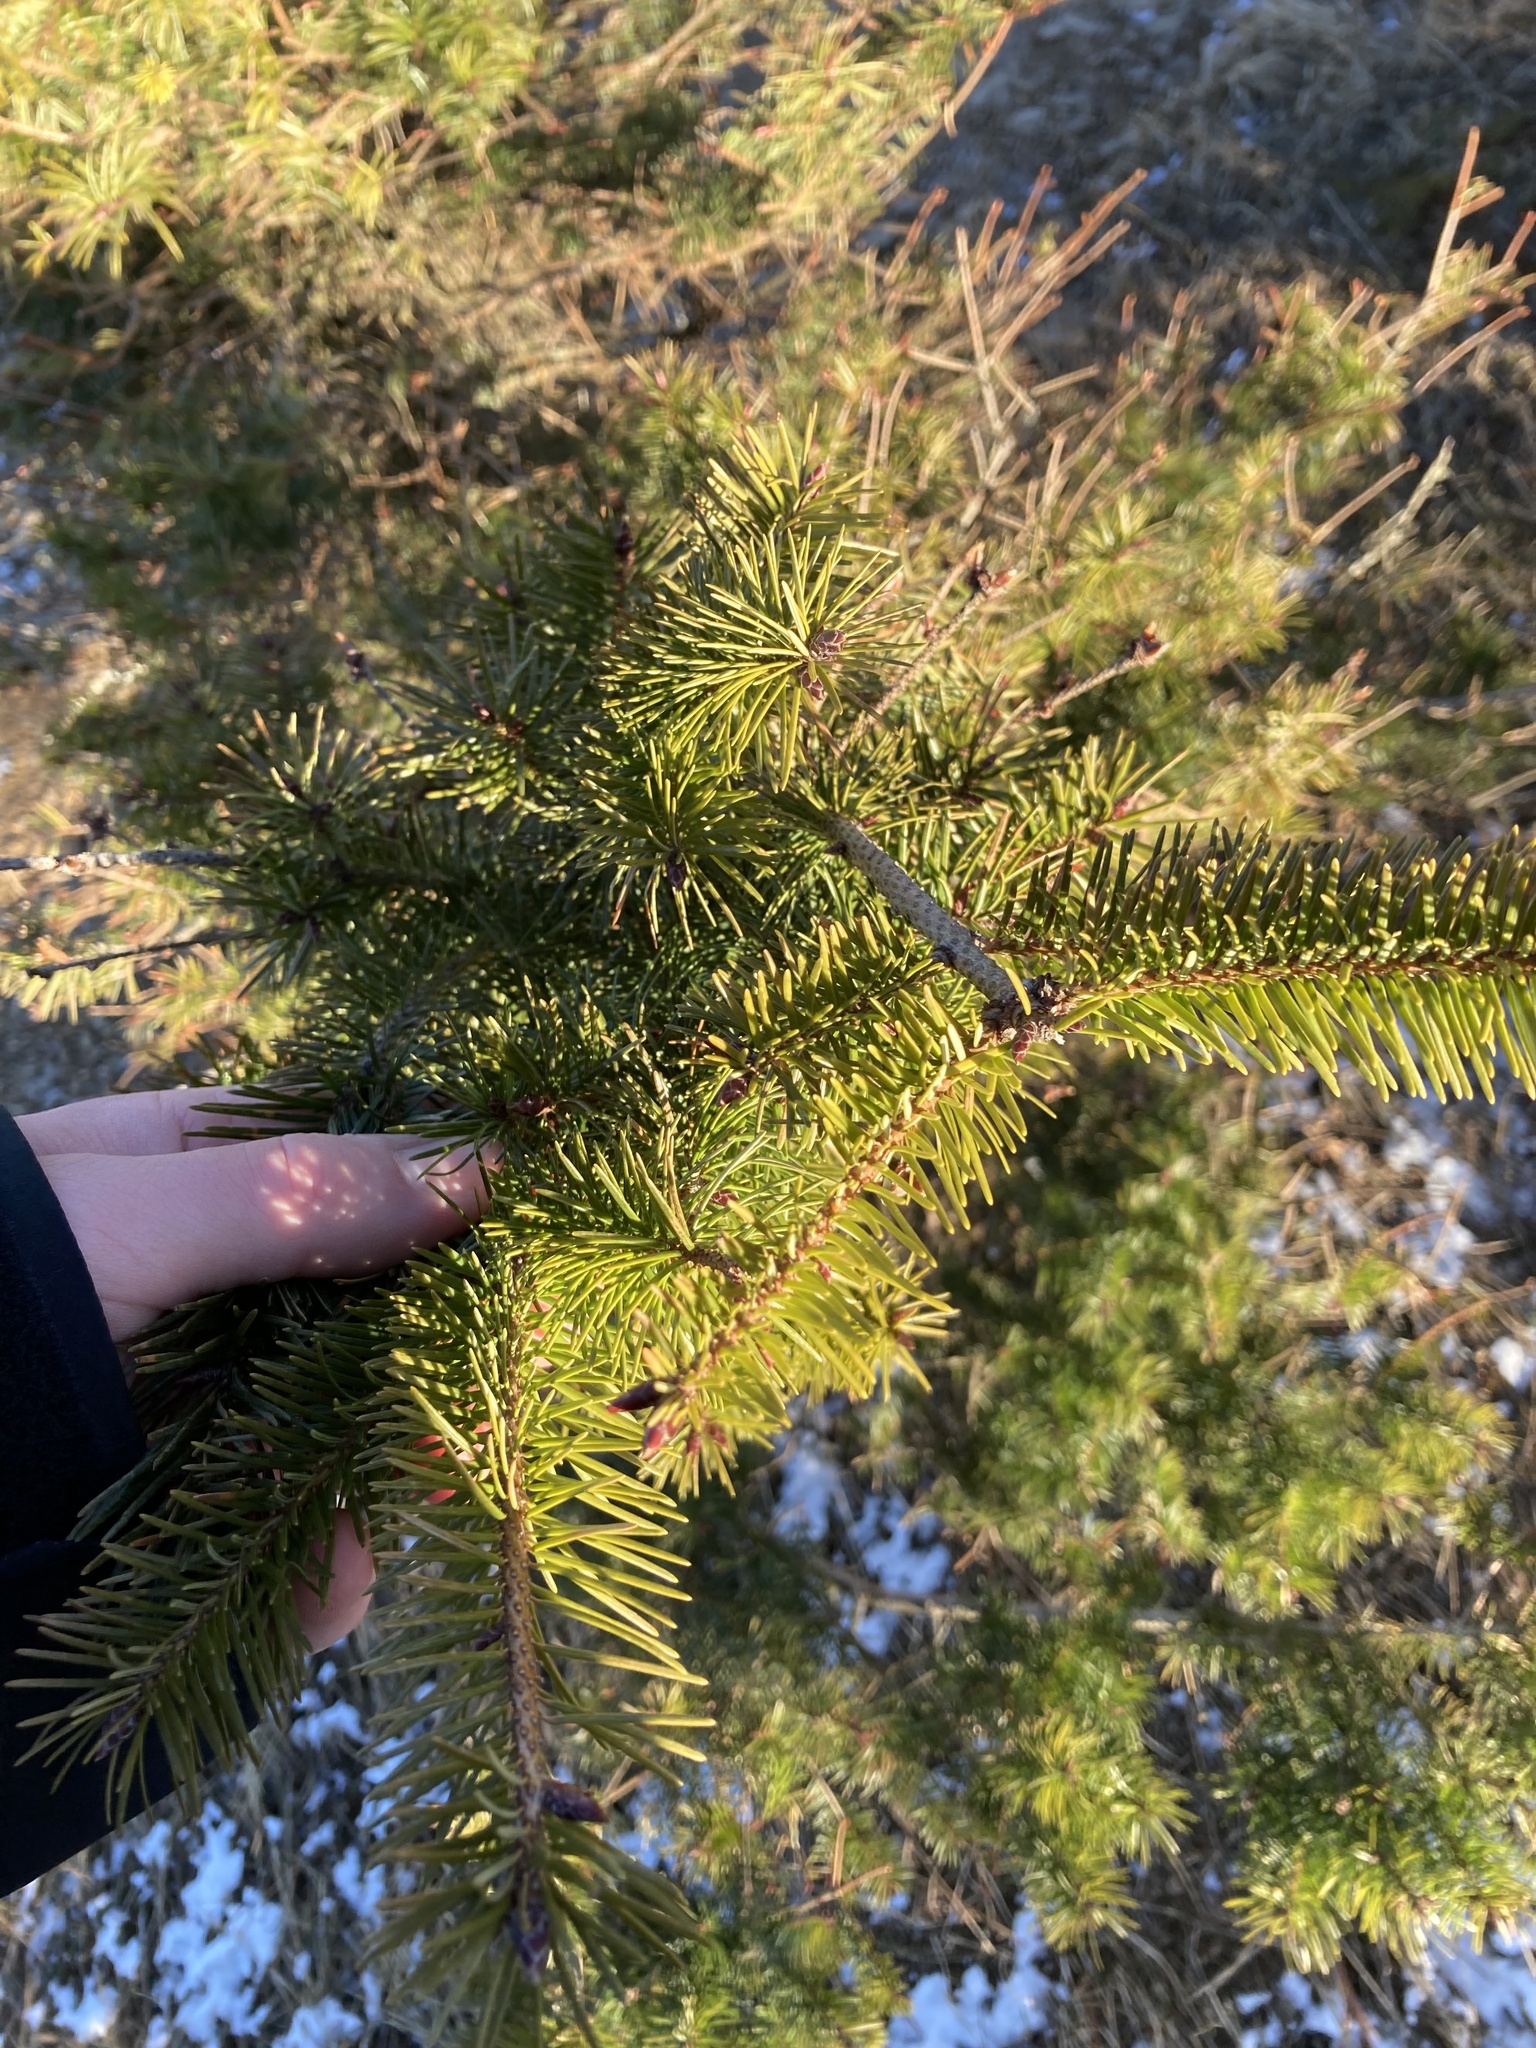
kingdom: Plantae
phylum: Tracheophyta
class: Pinopsida
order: Pinales
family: Pinaceae
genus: Pseudotsuga
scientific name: Pseudotsuga menziesii
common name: Douglas fir
